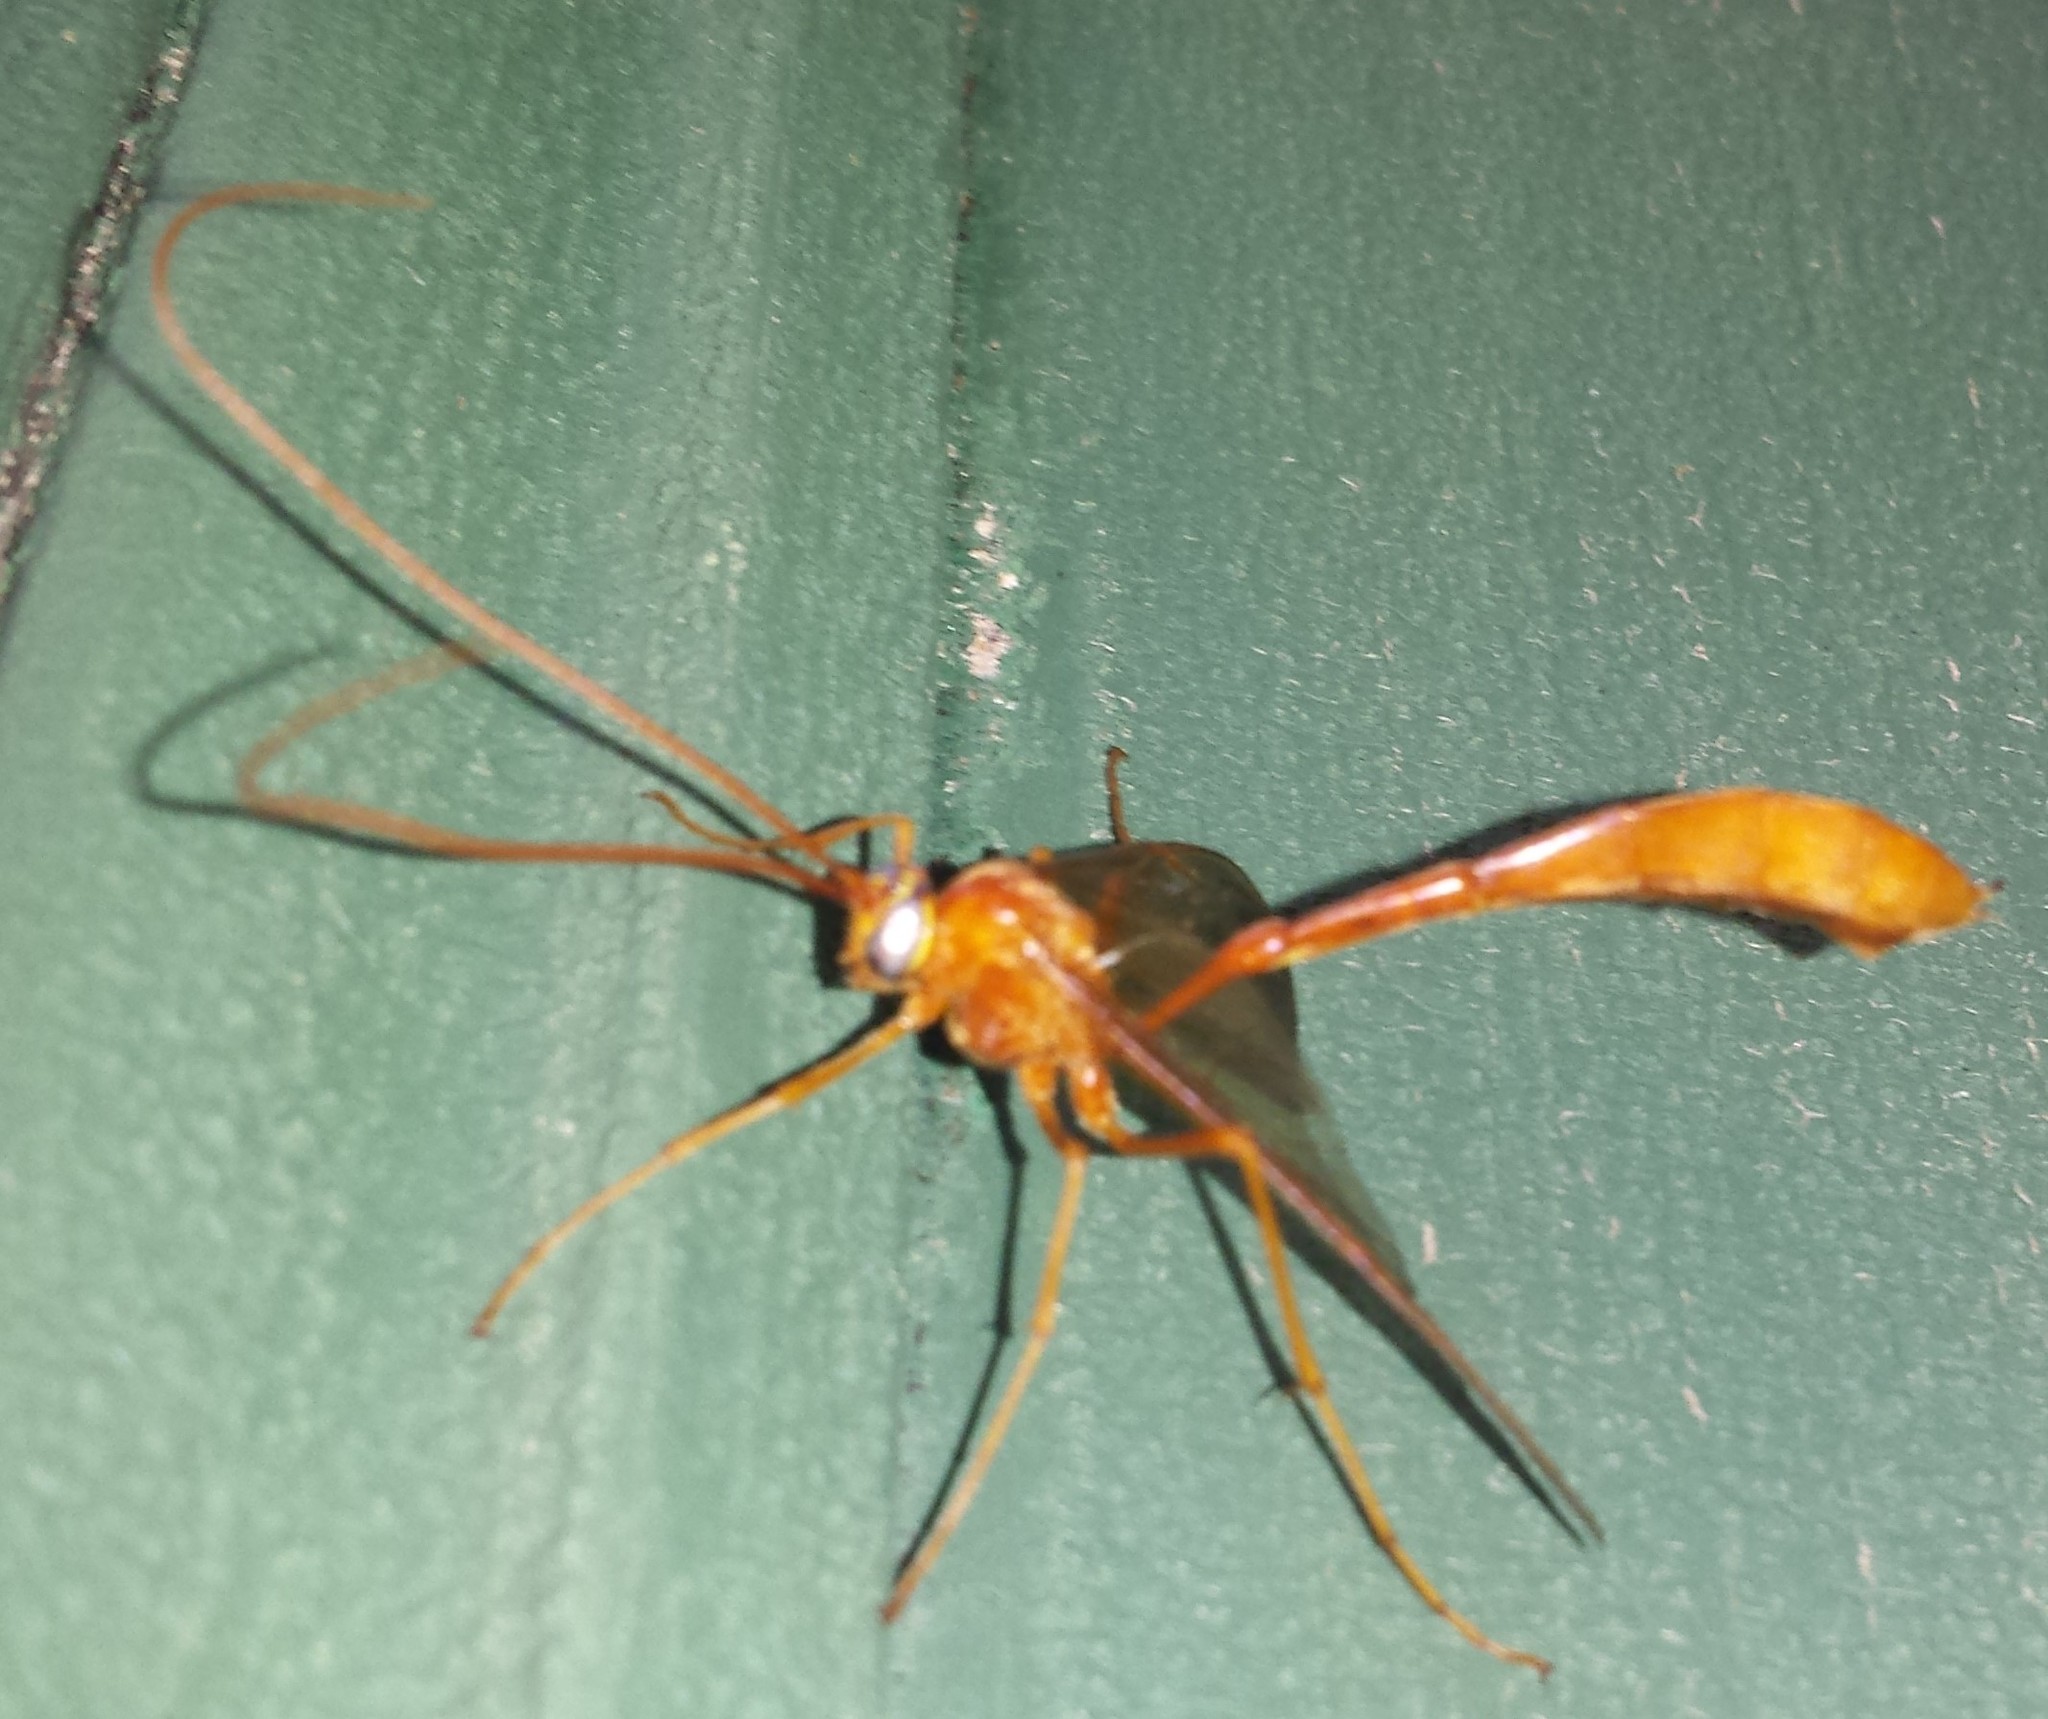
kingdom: Animalia
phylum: Arthropoda
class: Insecta
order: Hymenoptera
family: Ichneumonidae
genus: Enicospilus
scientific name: Enicospilus
